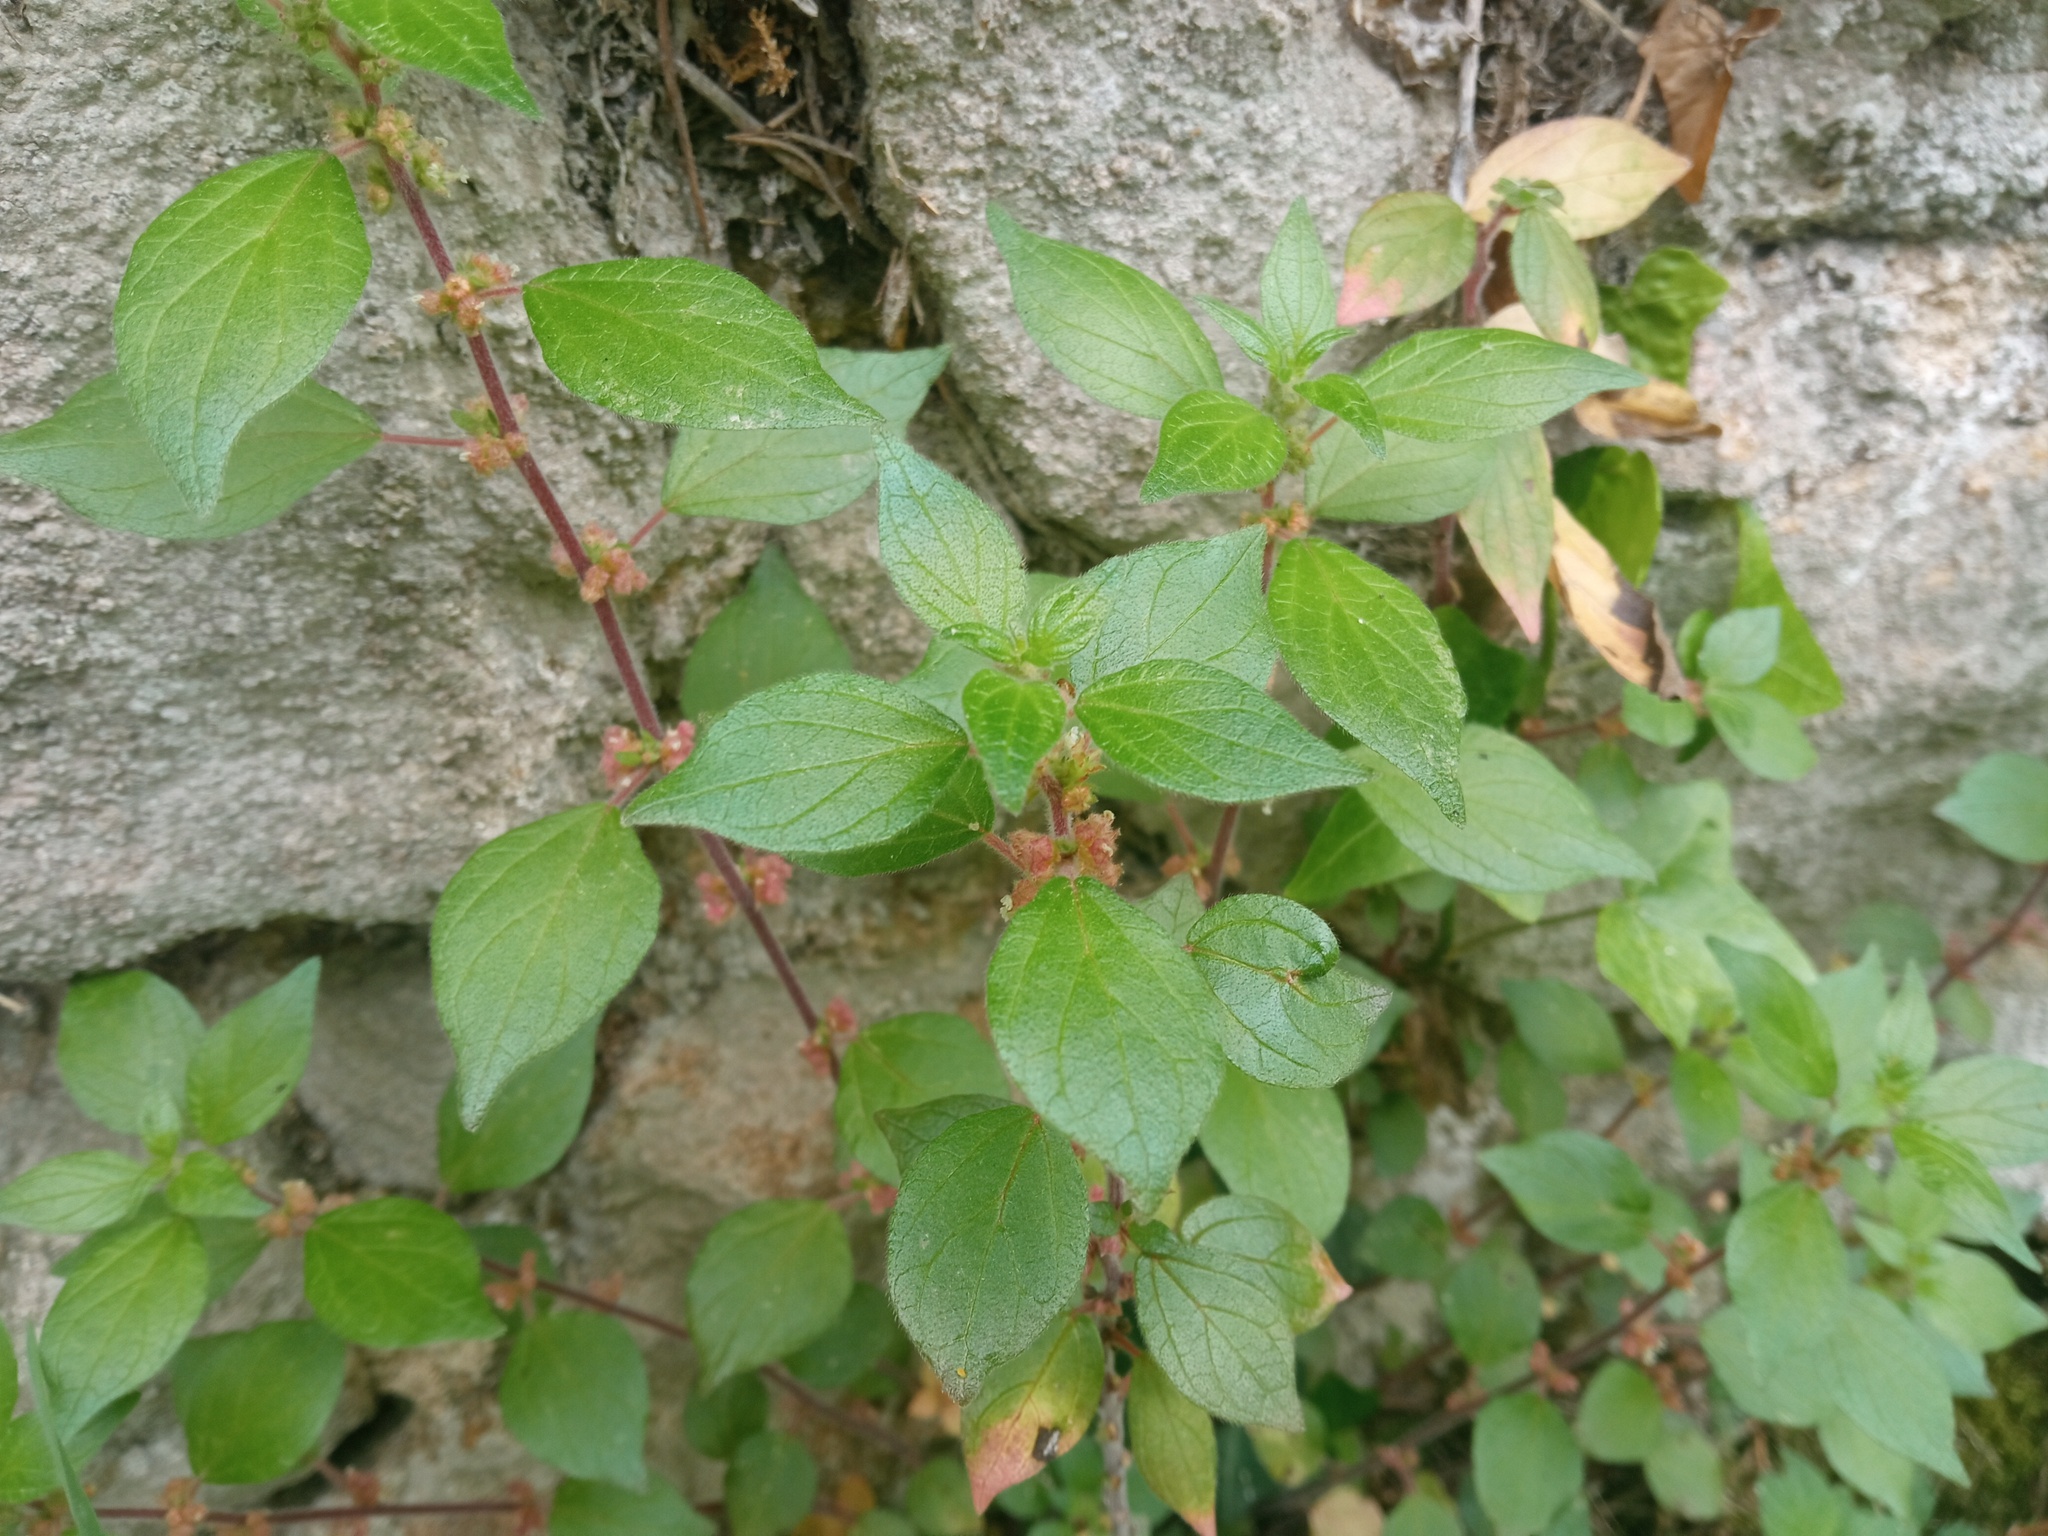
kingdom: Plantae
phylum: Tracheophyta
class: Magnoliopsida
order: Rosales
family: Urticaceae
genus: Parietaria
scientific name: Parietaria judaica
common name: Pellitory-of-the-wall
